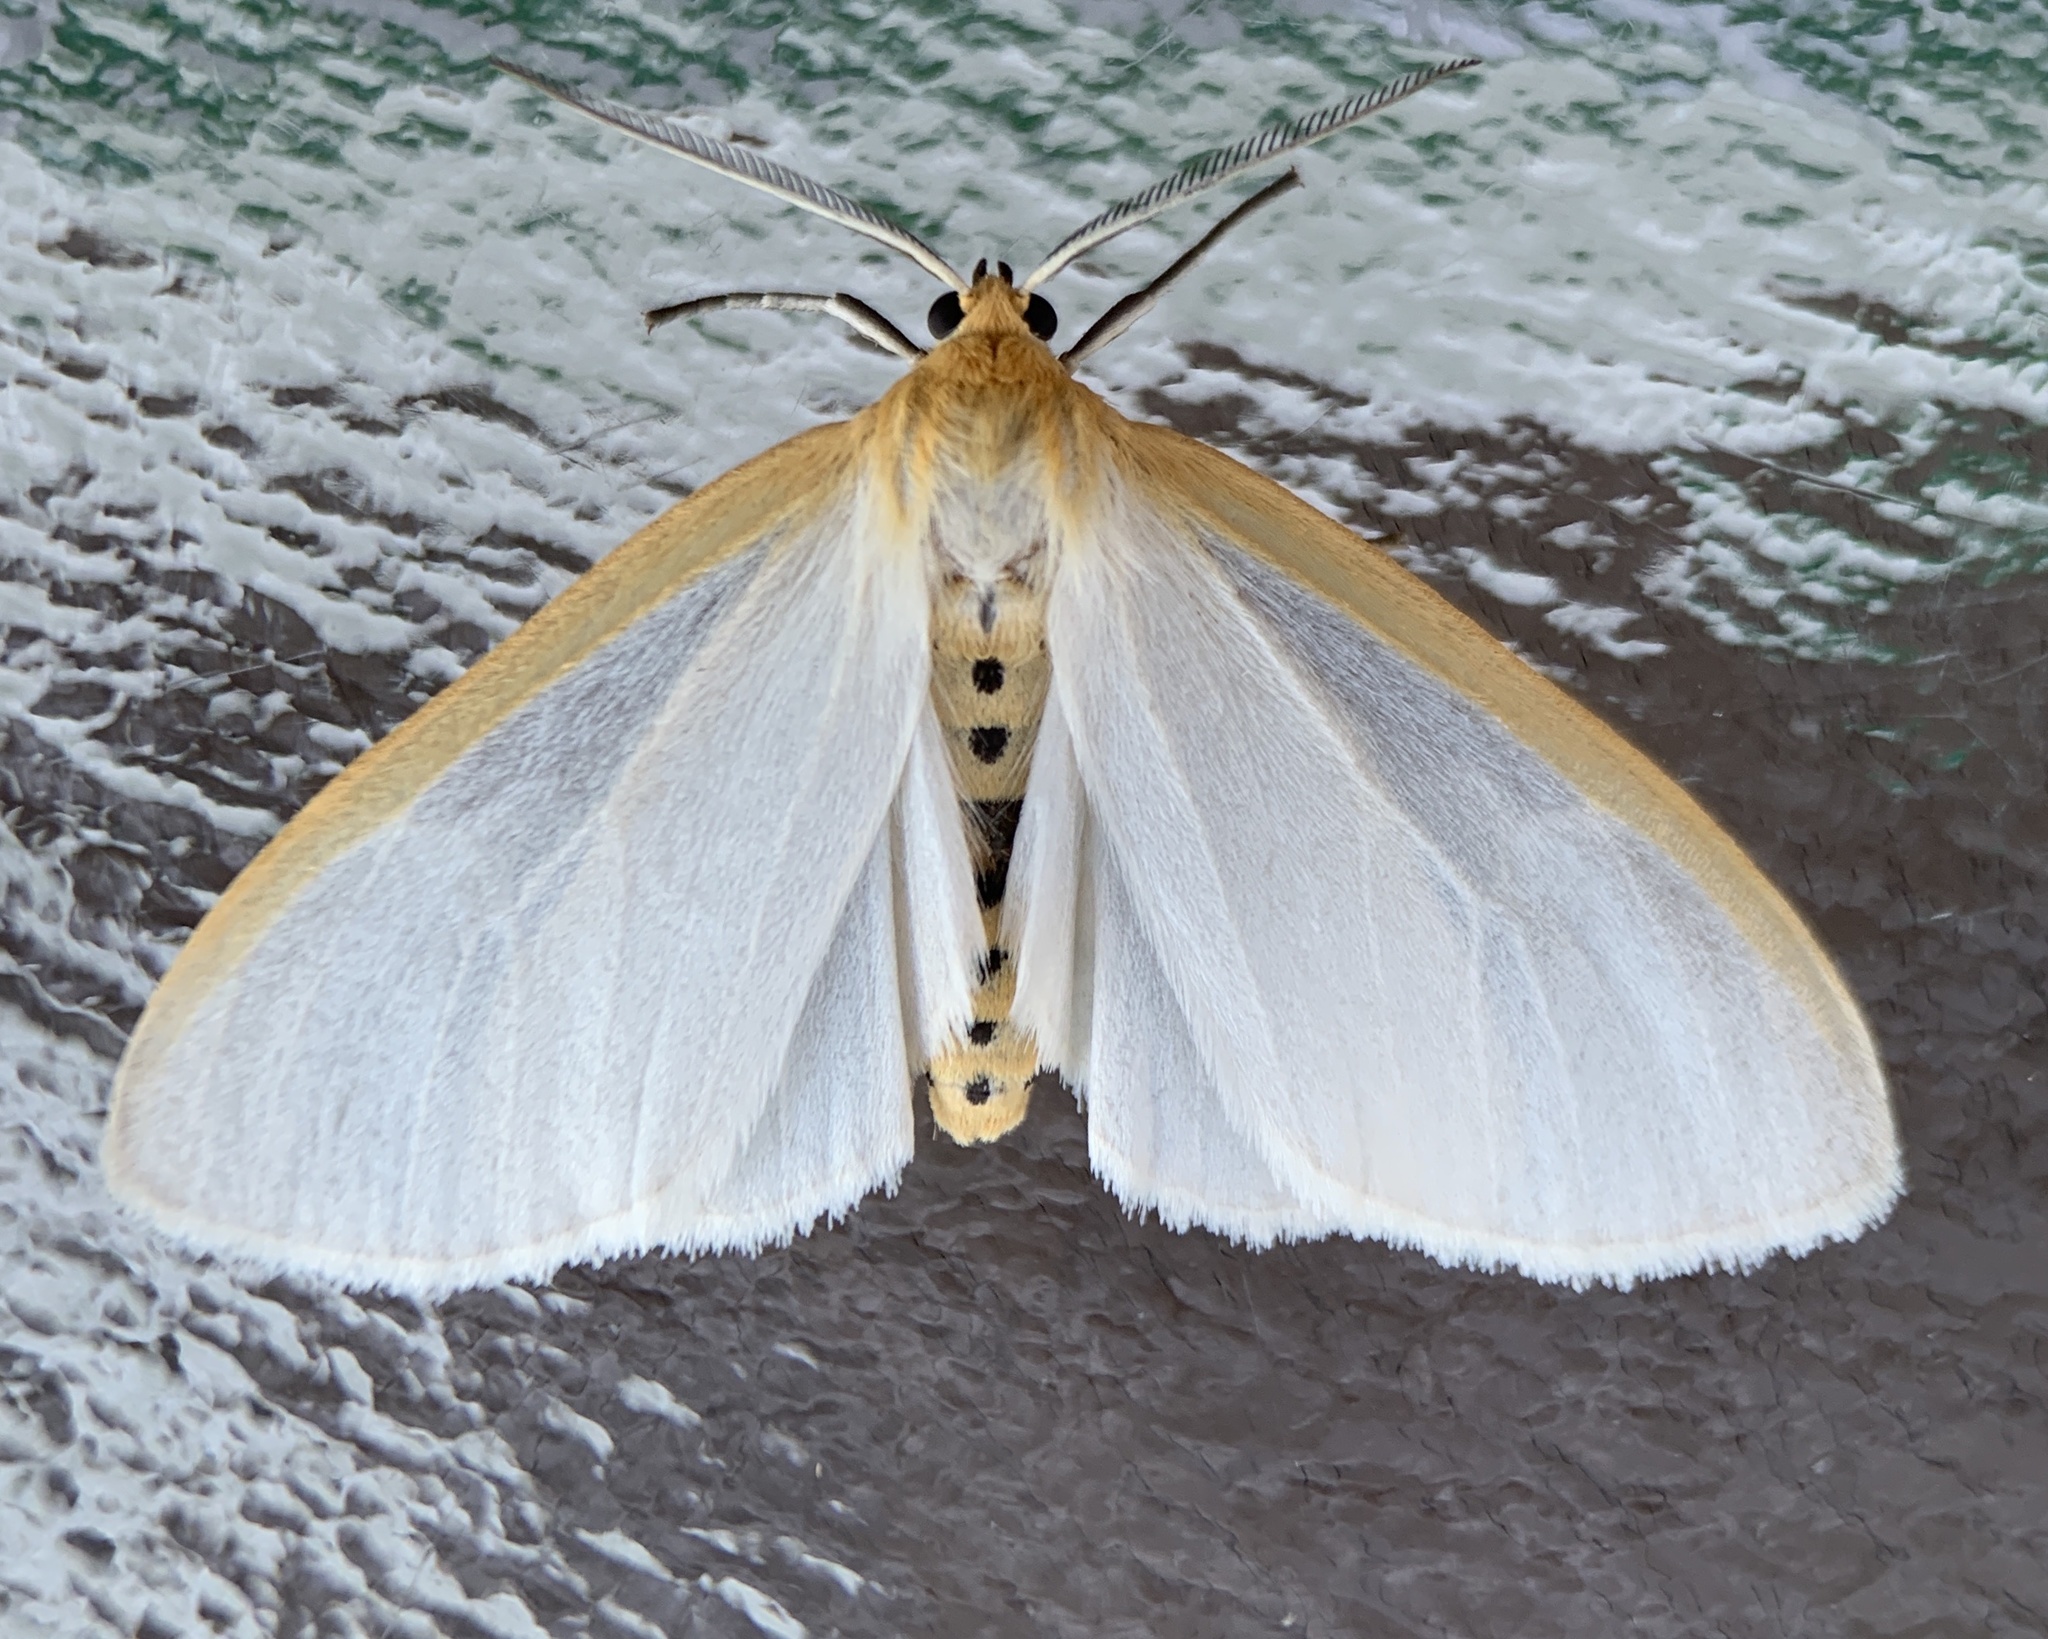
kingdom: Animalia
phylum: Arthropoda
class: Insecta
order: Lepidoptera
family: Erebidae
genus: Cycnia
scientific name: Cycnia tenera
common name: Delicate cycnia moth
